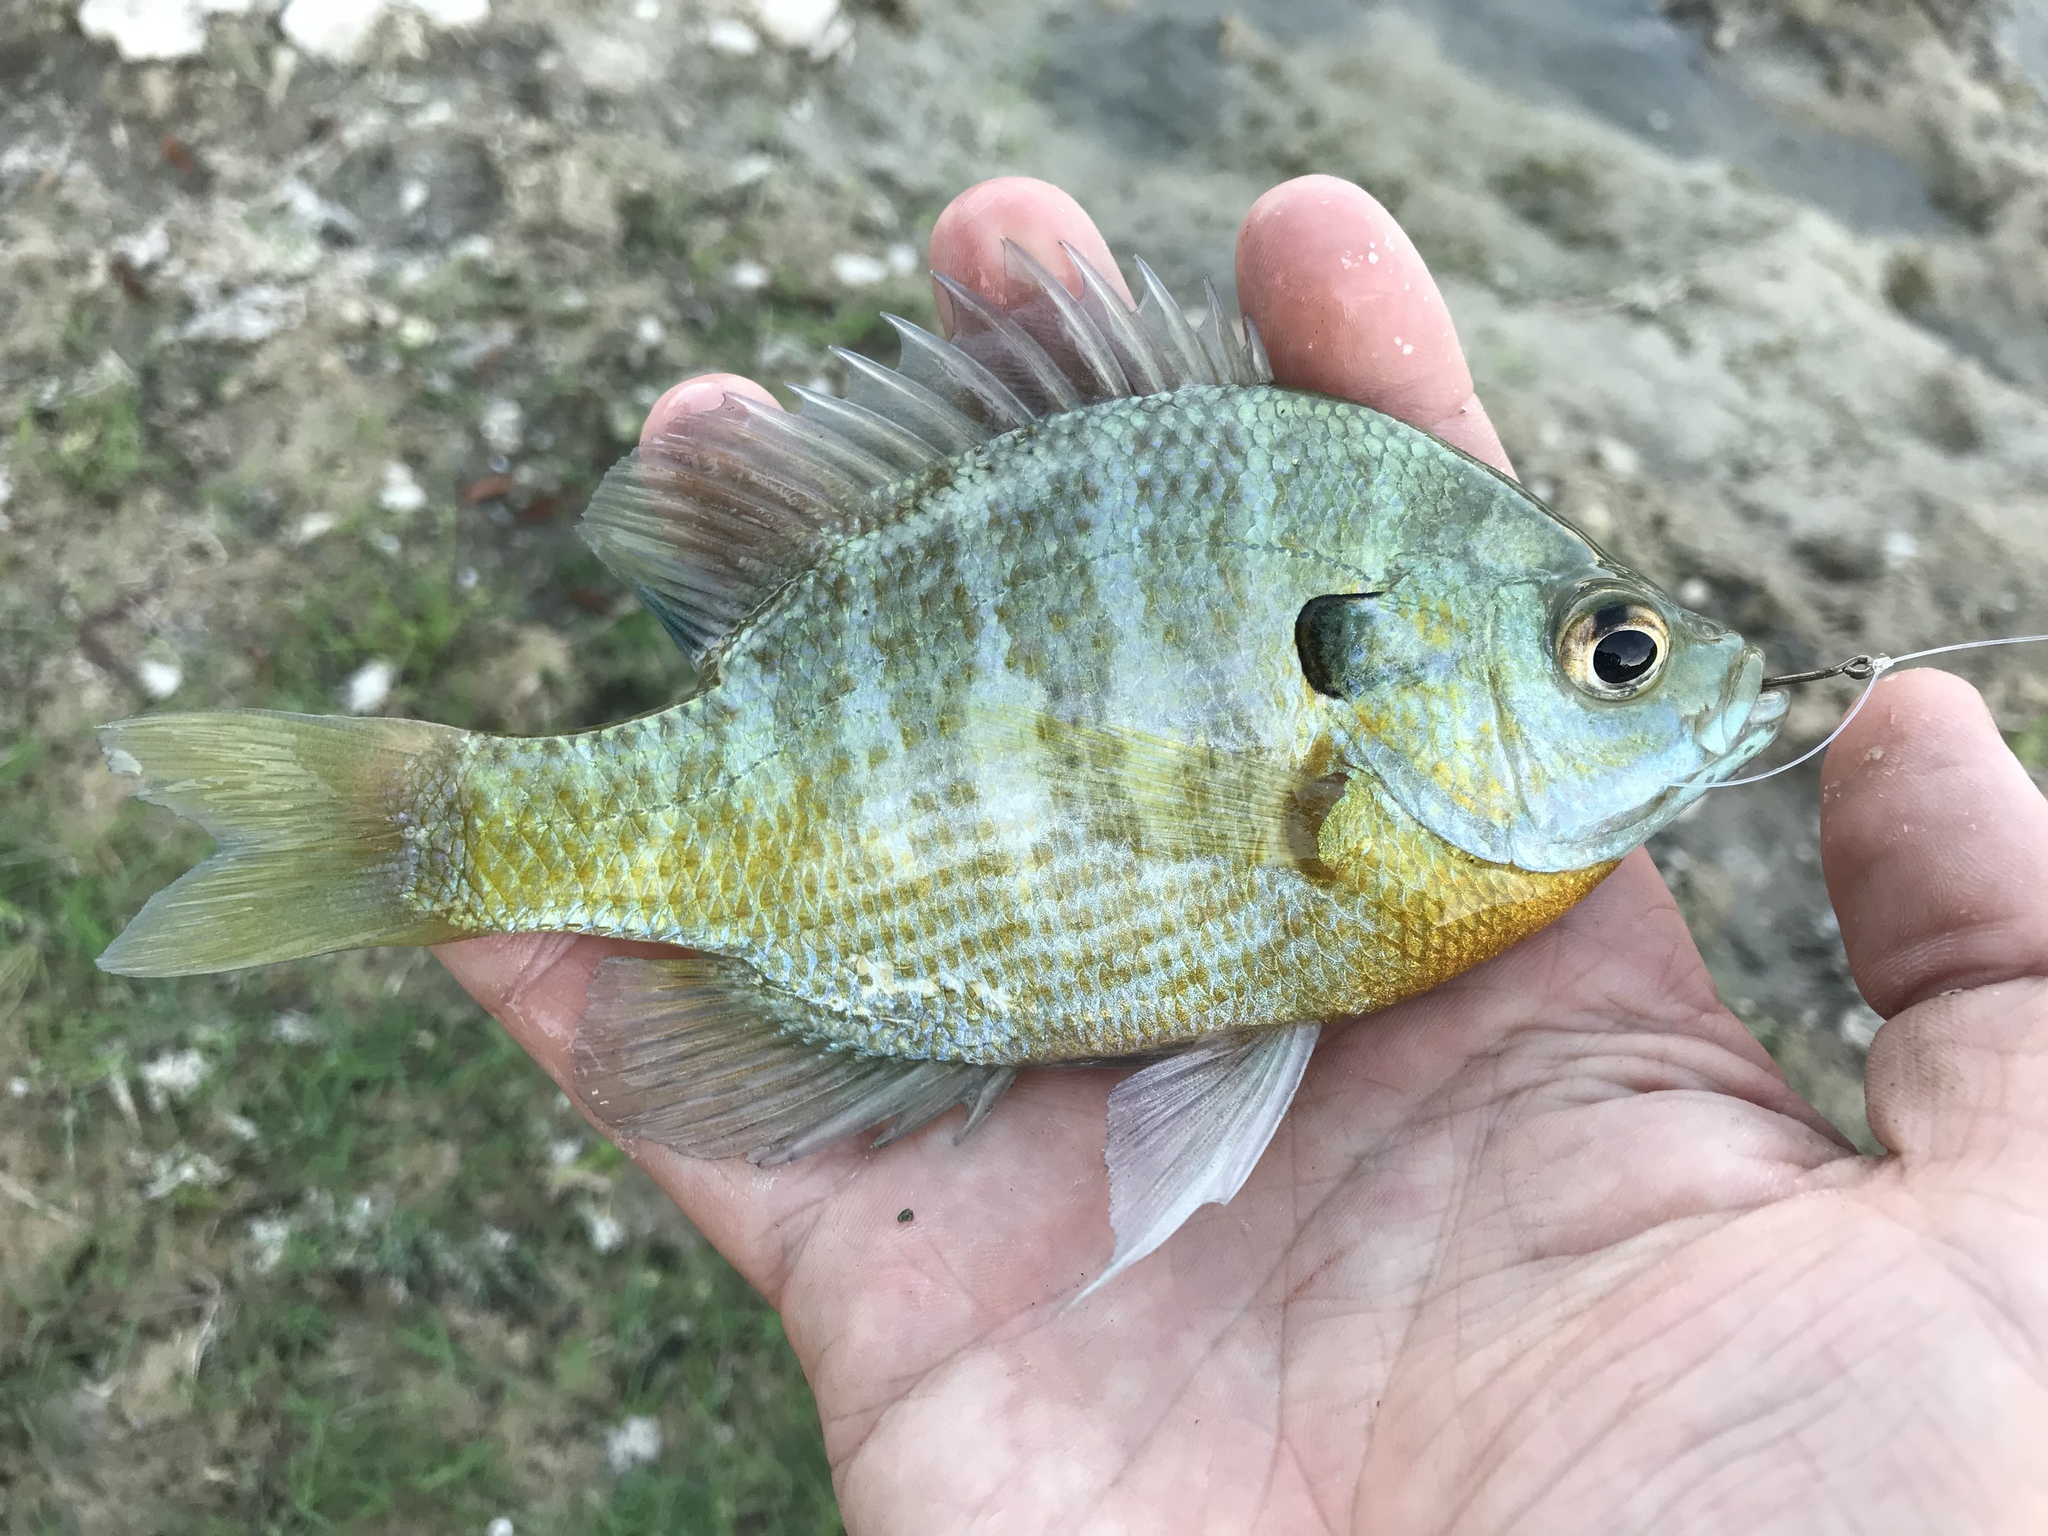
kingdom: Animalia
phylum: Chordata
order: Perciformes
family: Centrarchidae
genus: Lepomis
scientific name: Lepomis macrochirus
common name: Bluegill
